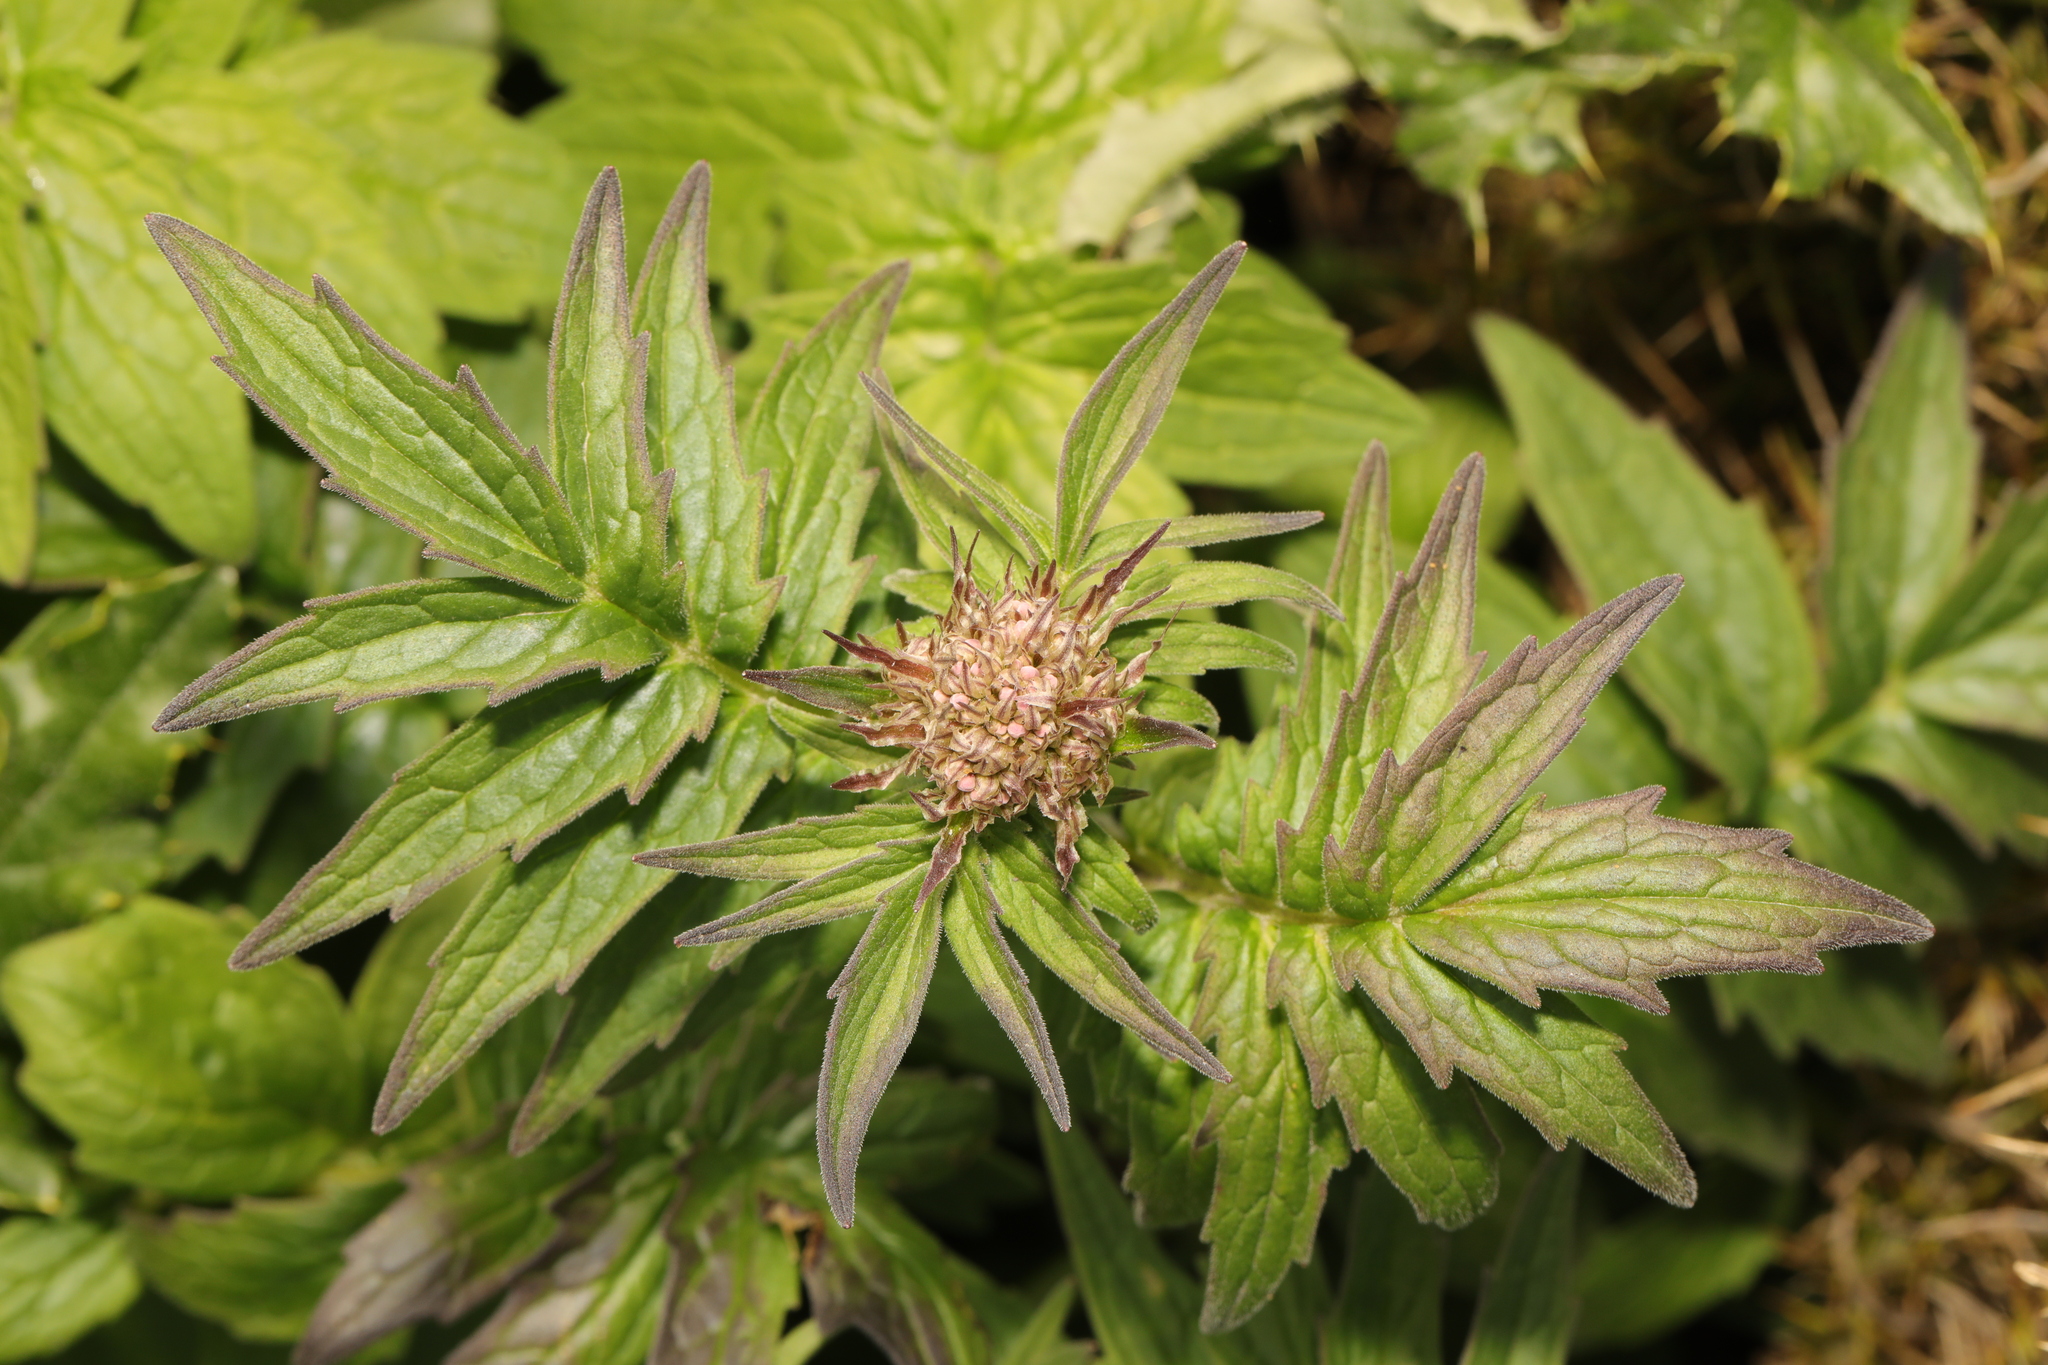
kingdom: Plantae
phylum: Tracheophyta
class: Magnoliopsida
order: Dipsacales
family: Caprifoliaceae
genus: Valeriana
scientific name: Valeriana officinalis
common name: Common valerian
